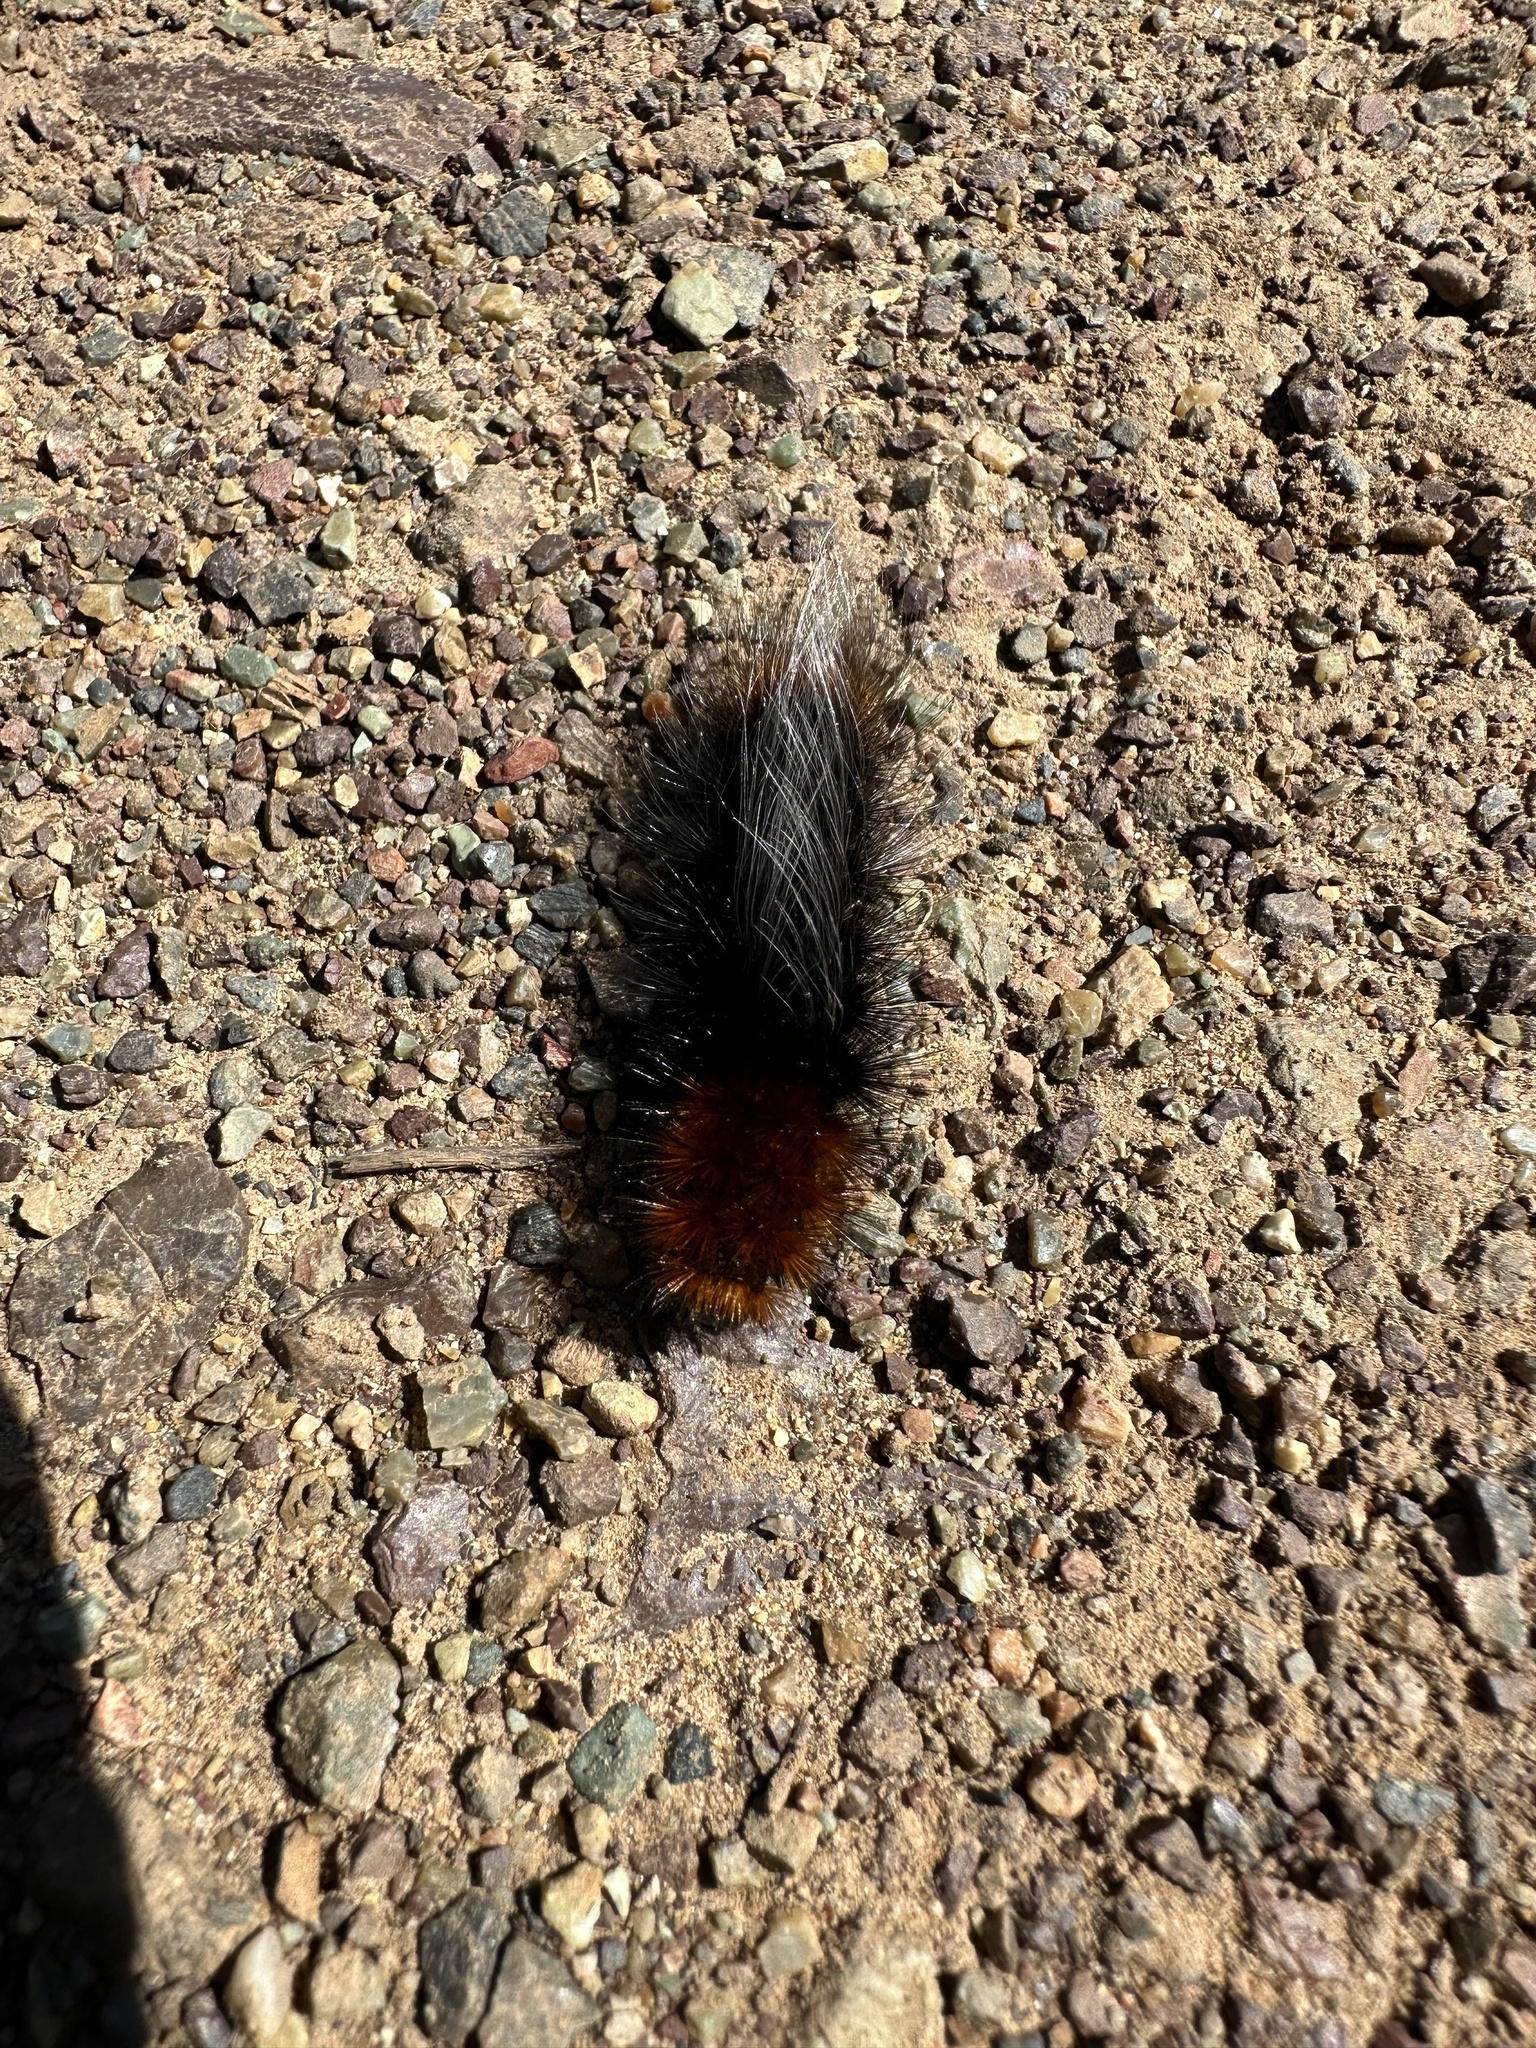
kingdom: Animalia
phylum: Arthropoda
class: Insecta
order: Lepidoptera
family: Erebidae
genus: Arctia
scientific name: Arctia tigrina
